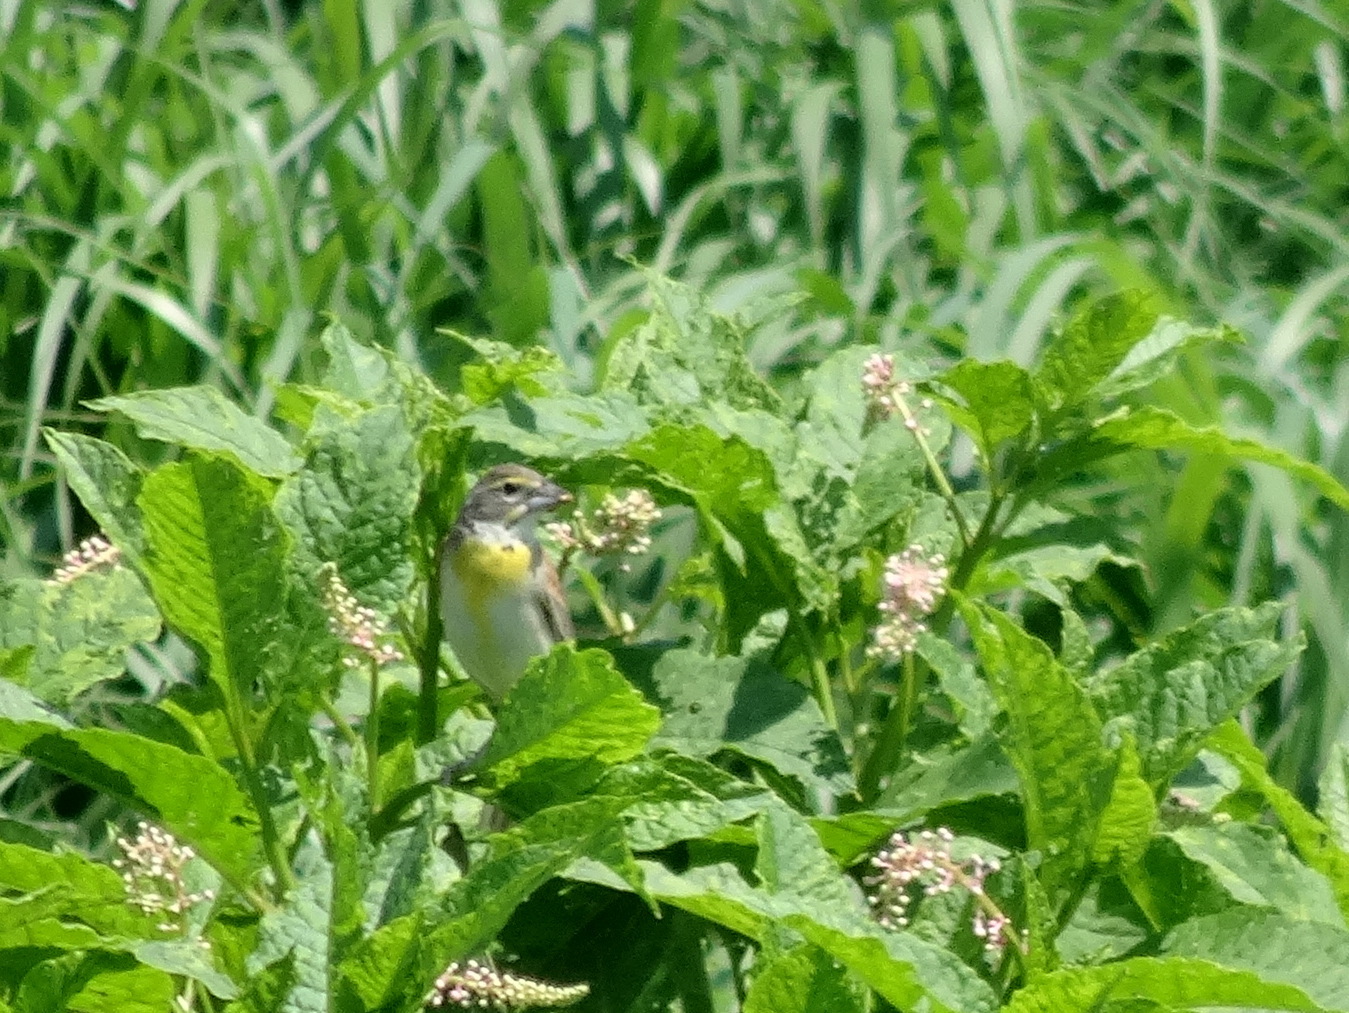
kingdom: Animalia
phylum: Chordata
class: Aves
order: Passeriformes
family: Cardinalidae
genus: Spiza
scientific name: Spiza americana
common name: Dickcissel
